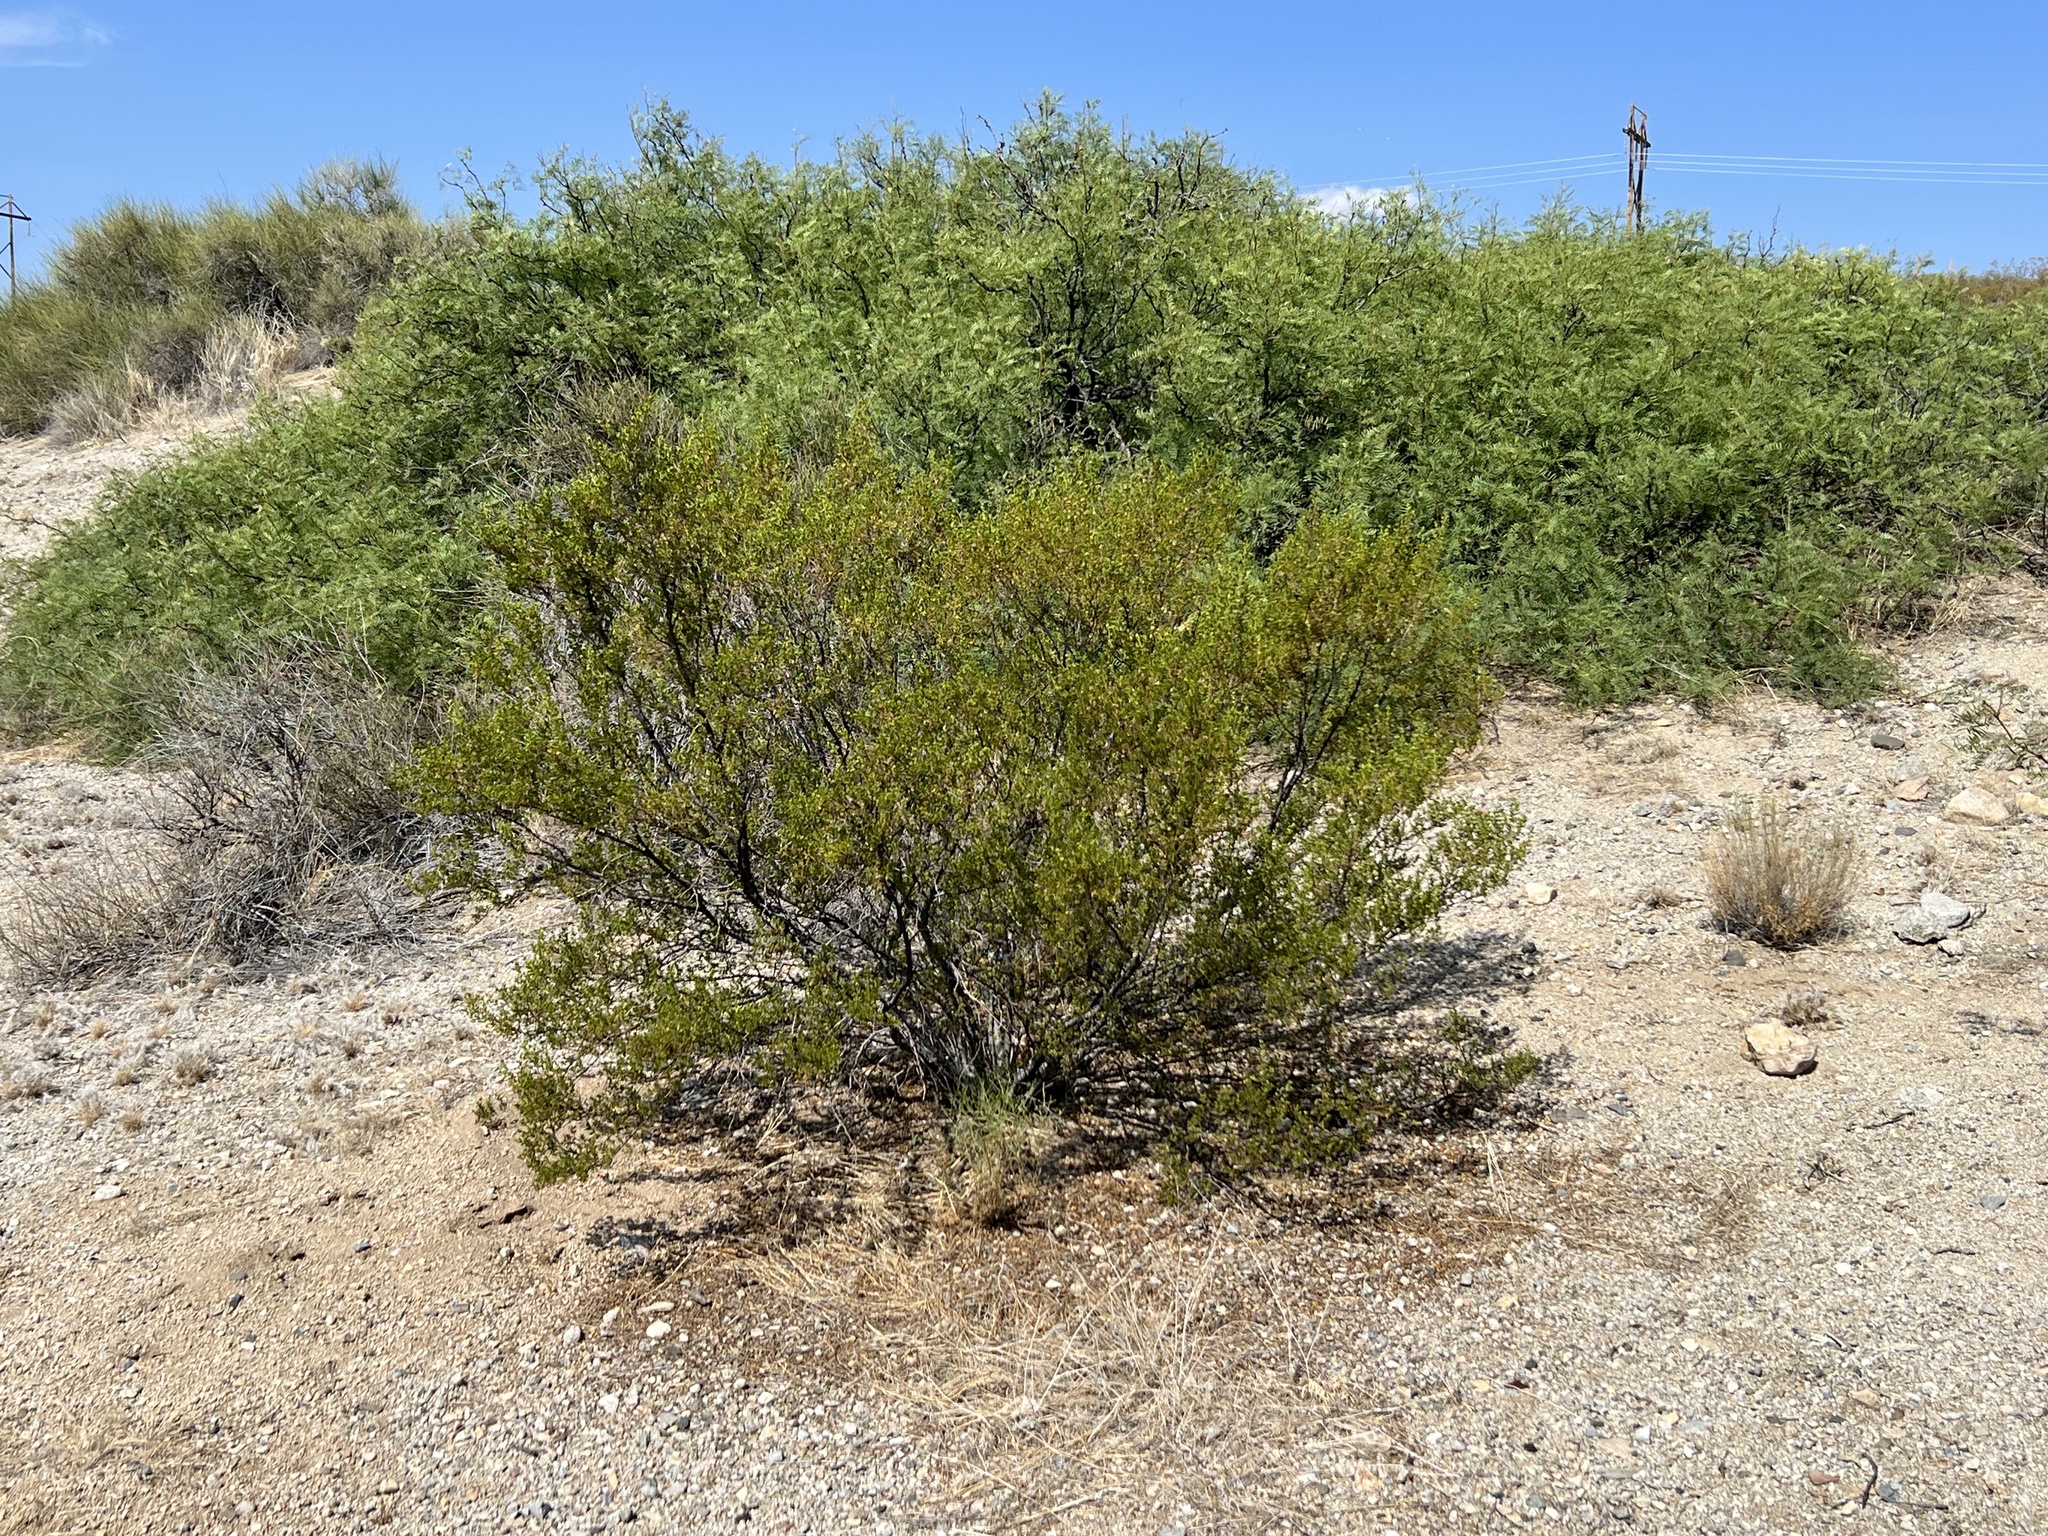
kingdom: Plantae
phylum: Tracheophyta
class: Magnoliopsida
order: Zygophyllales
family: Zygophyllaceae
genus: Larrea
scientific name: Larrea tridentata
